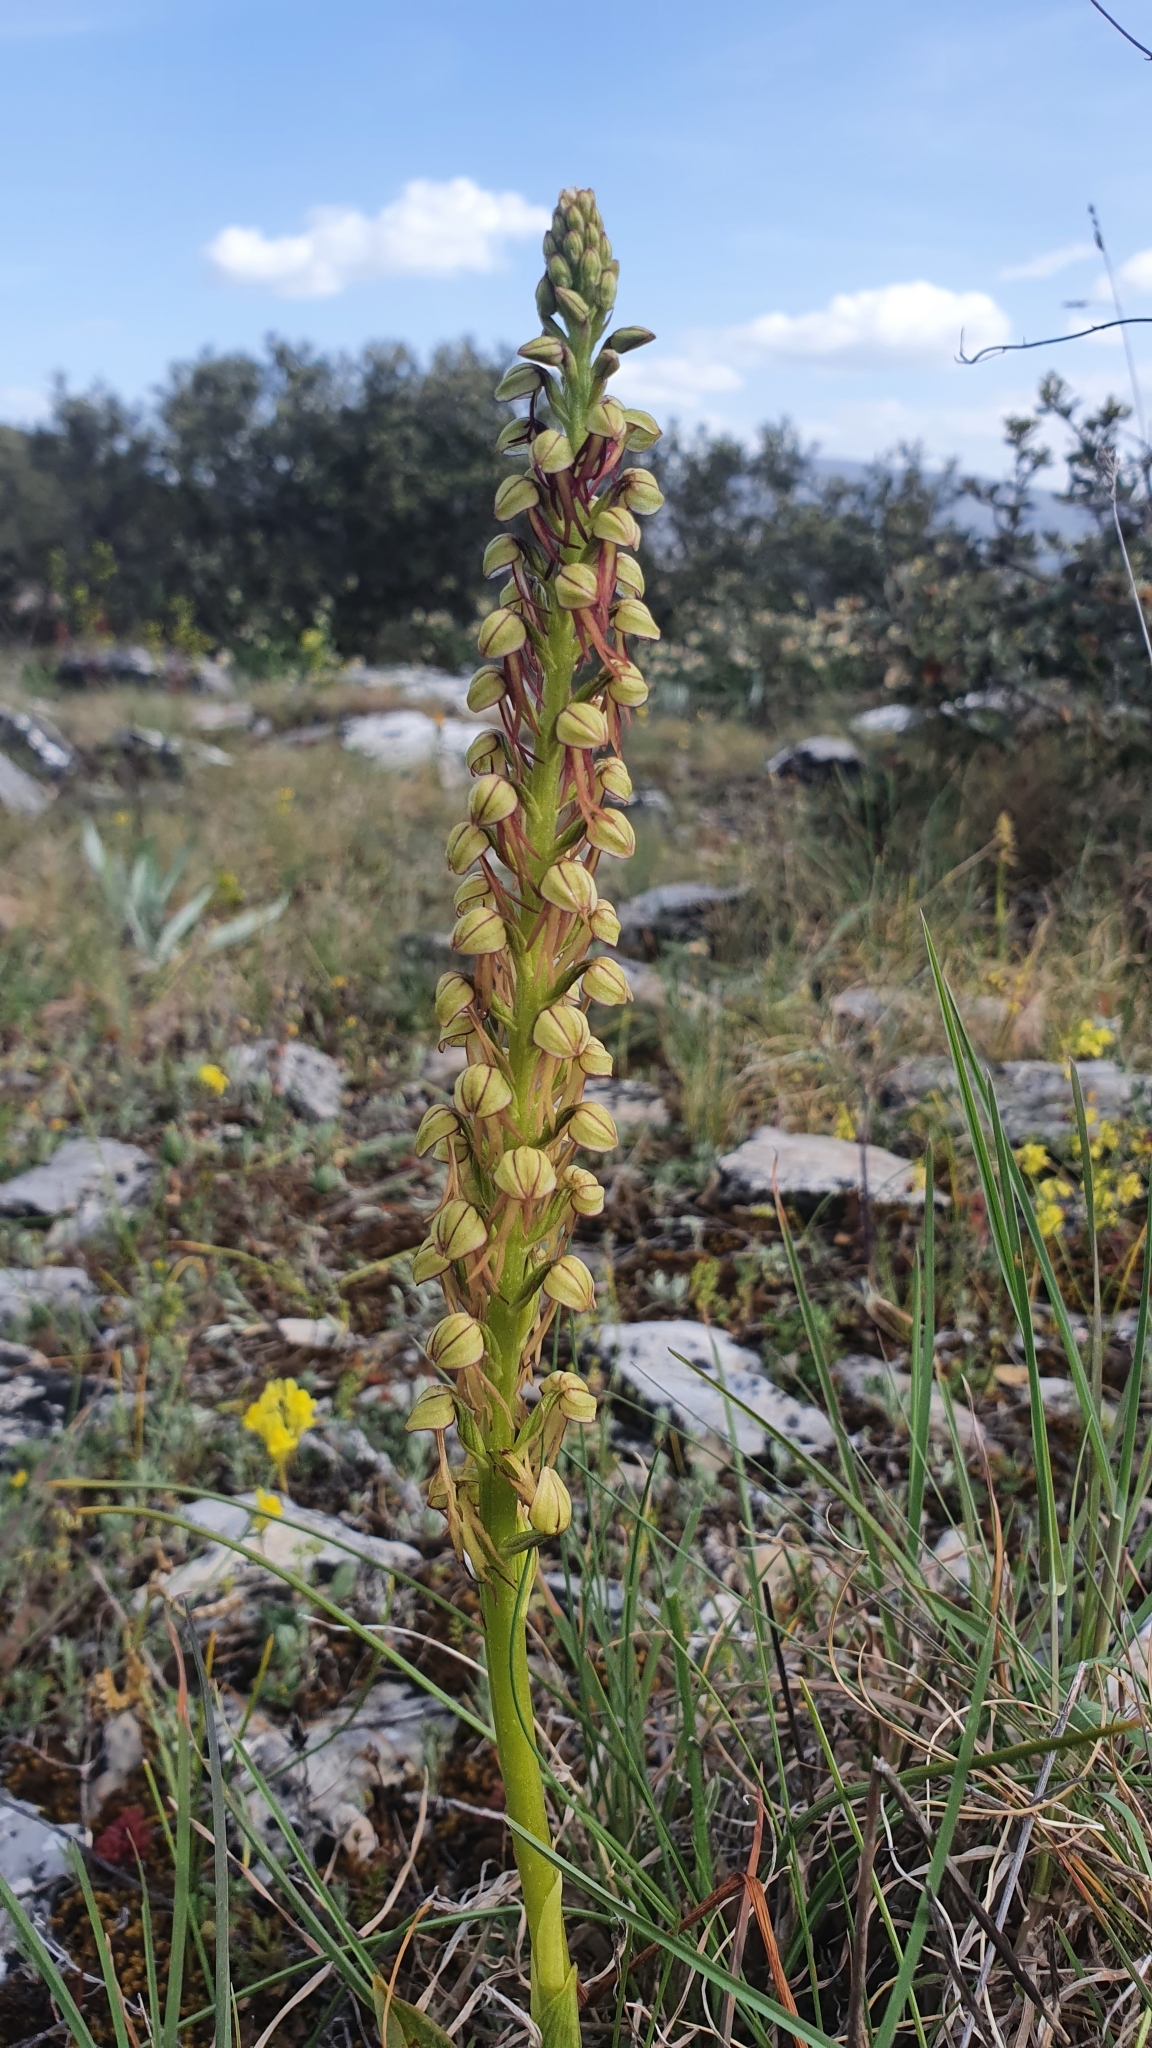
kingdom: Plantae
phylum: Tracheophyta
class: Liliopsida
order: Asparagales
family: Orchidaceae
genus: Orchis
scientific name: Orchis anthropophora
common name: Man orchid
